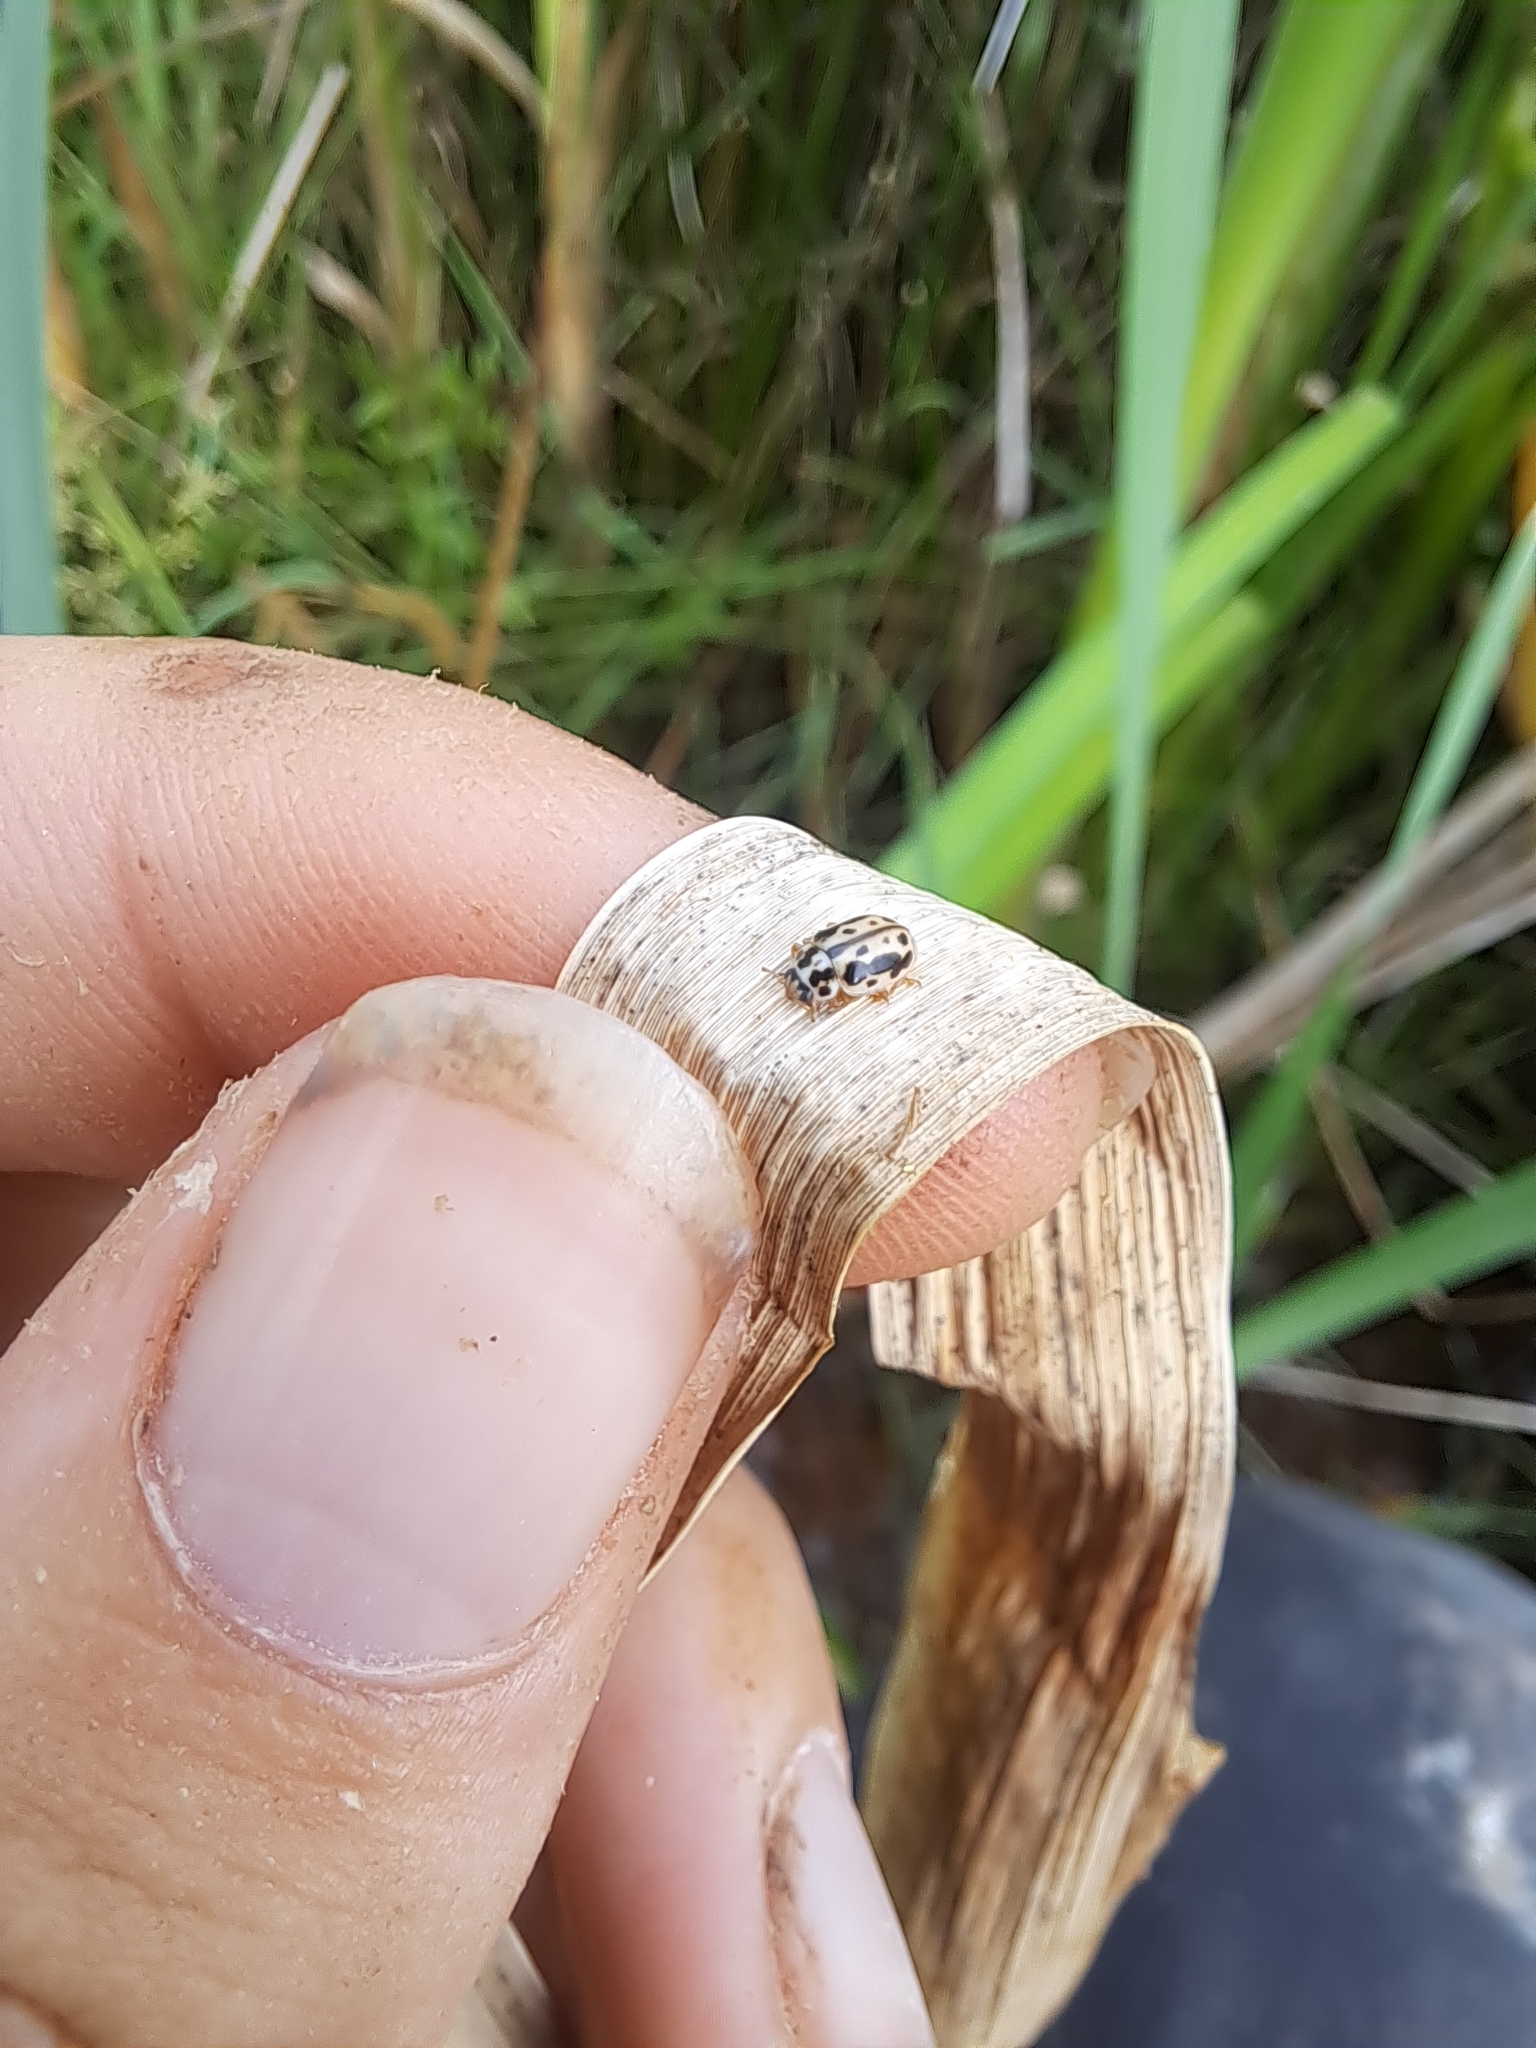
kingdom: Animalia
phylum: Arthropoda
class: Insecta
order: Coleoptera
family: Coccinellidae
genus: Anisosticta
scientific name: Anisosticta bitriangularis
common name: Marsh lady beetle
